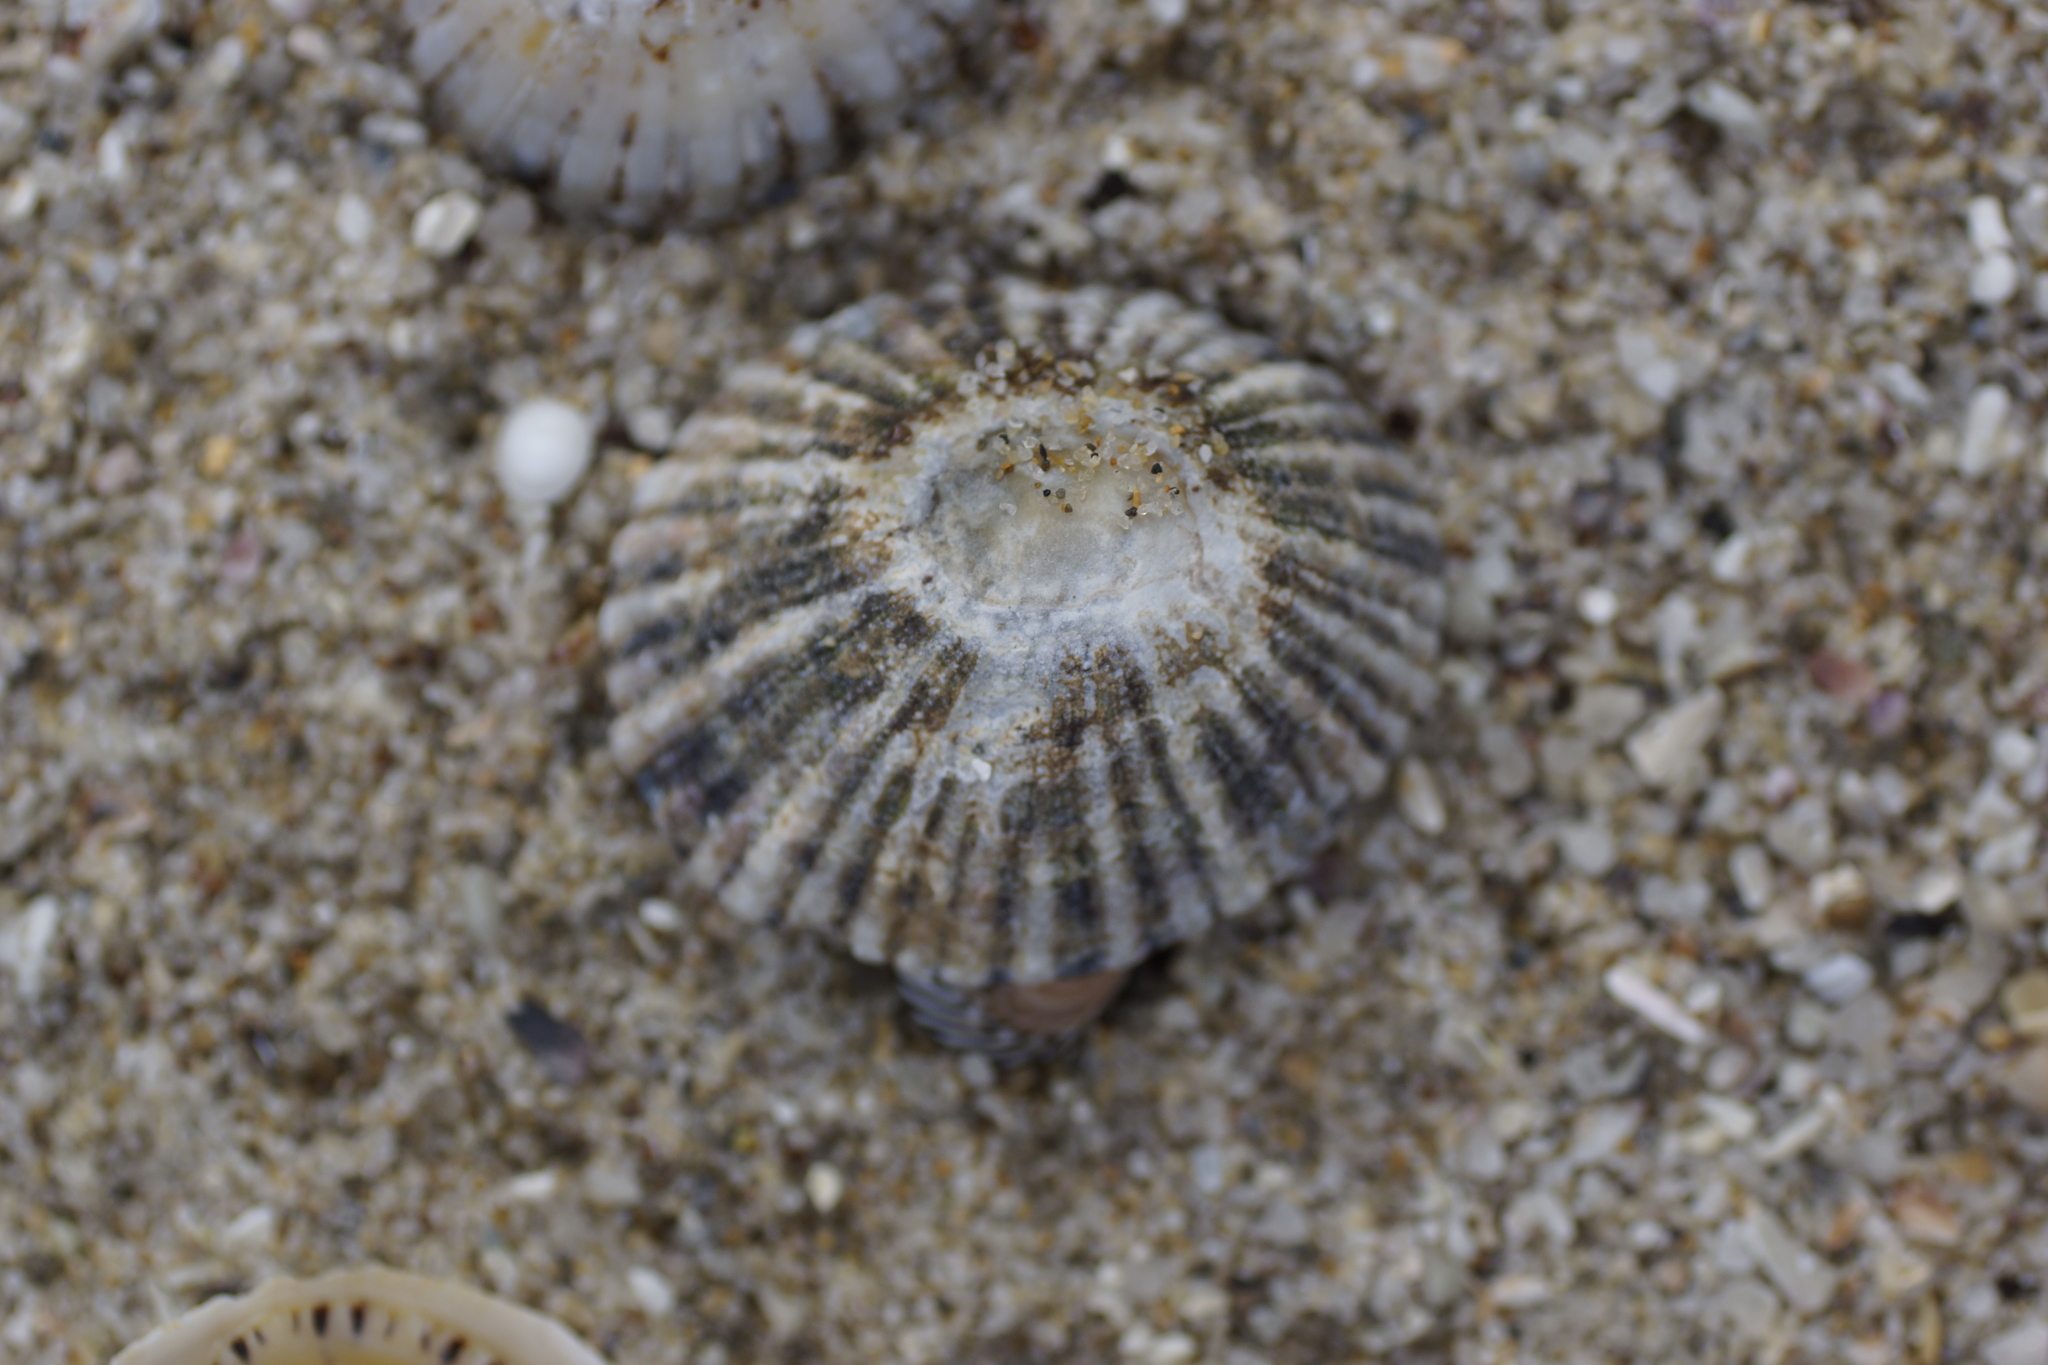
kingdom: Animalia
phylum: Mollusca
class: Gastropoda
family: Nacellidae
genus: Cellana
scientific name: Cellana tramoserica
